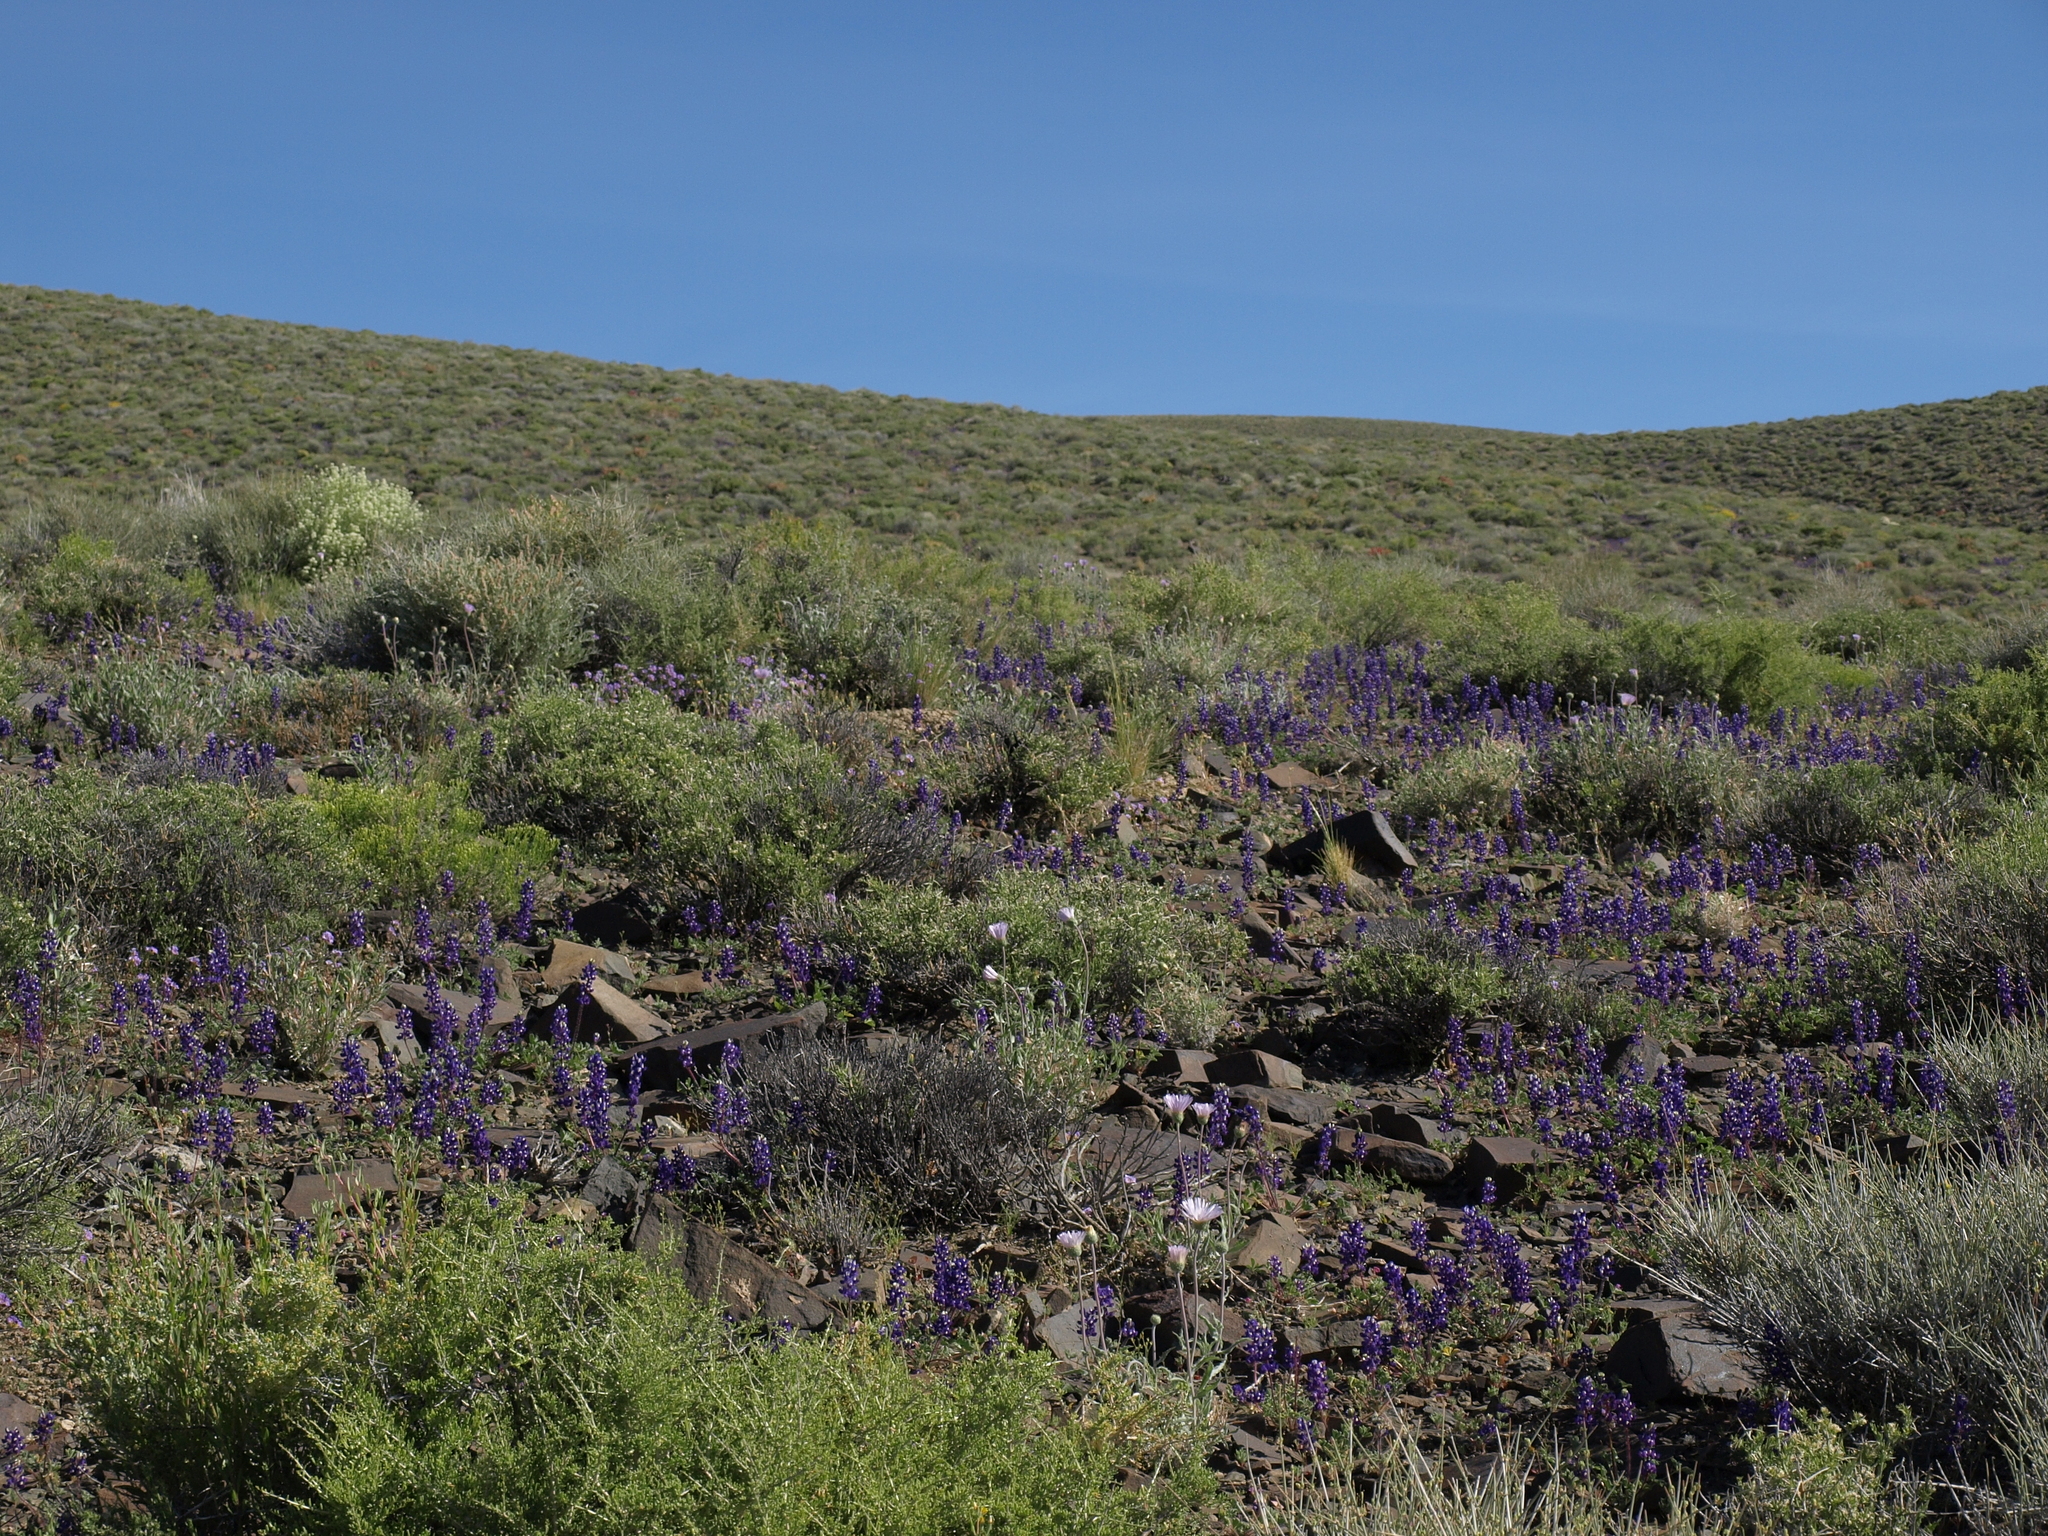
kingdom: Plantae
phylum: Tracheophyta
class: Magnoliopsida
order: Fabales
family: Fabaceae
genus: Lupinus
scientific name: Lupinus flavoculatus
